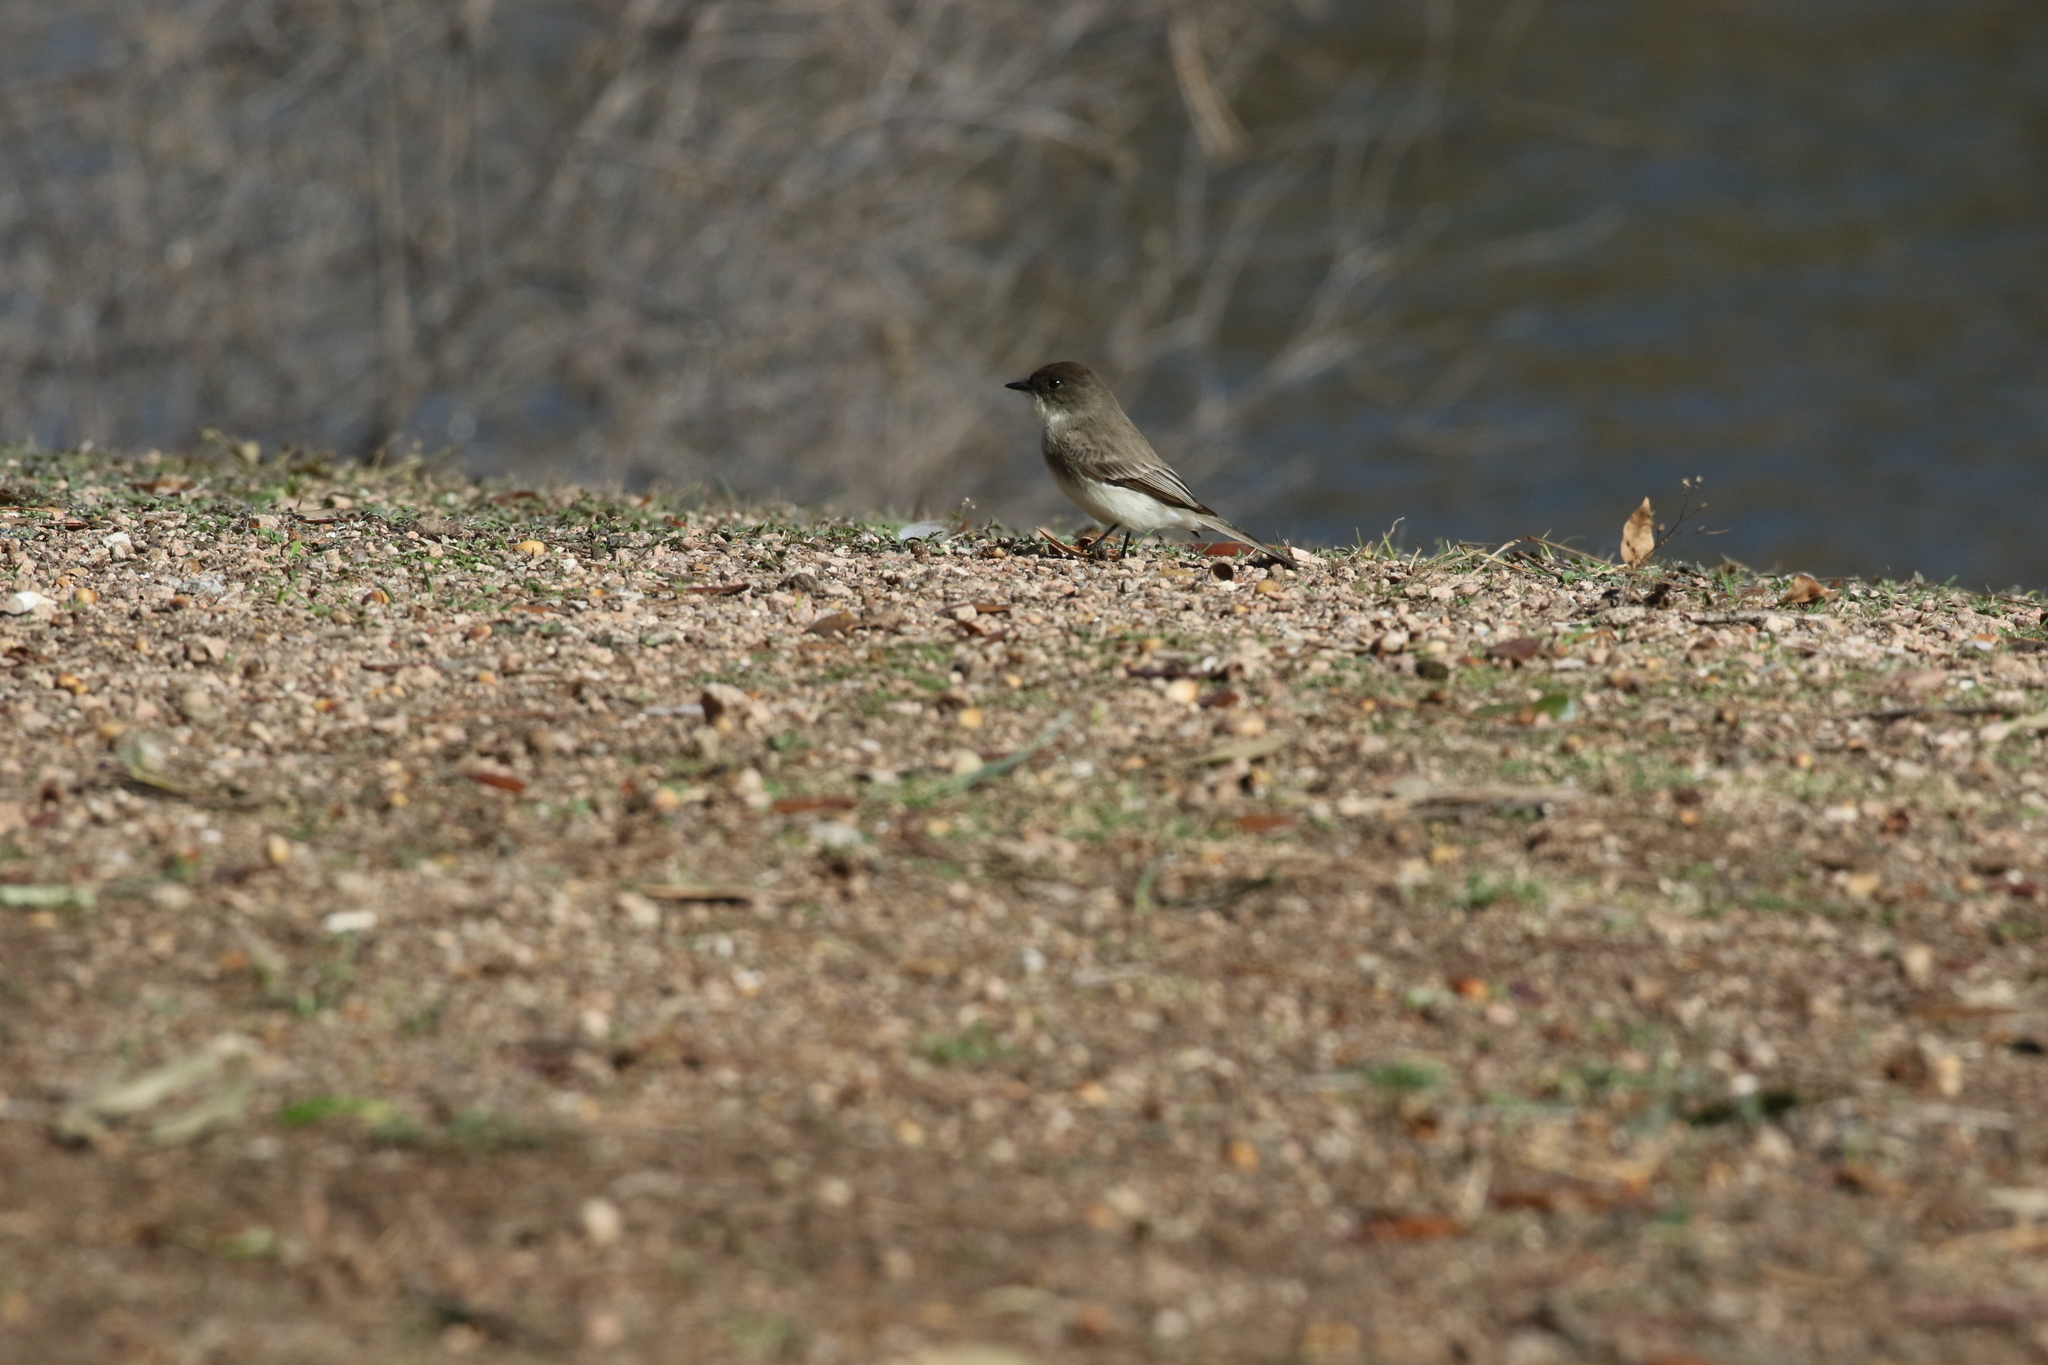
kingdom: Animalia
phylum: Chordata
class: Aves
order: Passeriformes
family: Tyrannidae
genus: Sayornis
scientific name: Sayornis phoebe
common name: Eastern phoebe
